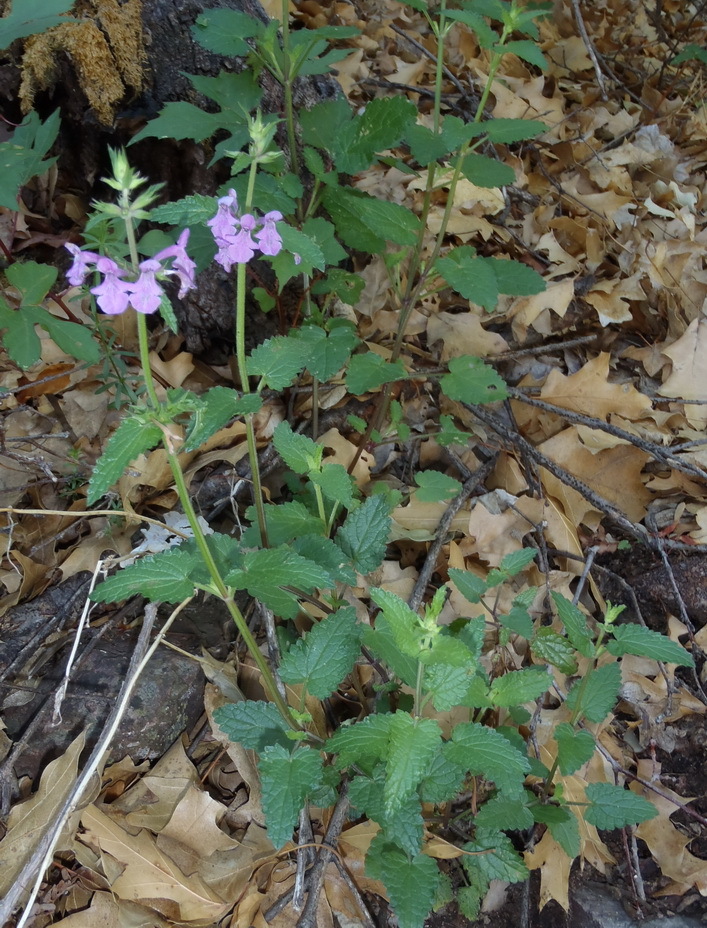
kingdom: Plantae
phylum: Tracheophyta
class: Magnoliopsida
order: Lamiales
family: Lamiaceae
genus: Stachys
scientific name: Stachys bigelovii
